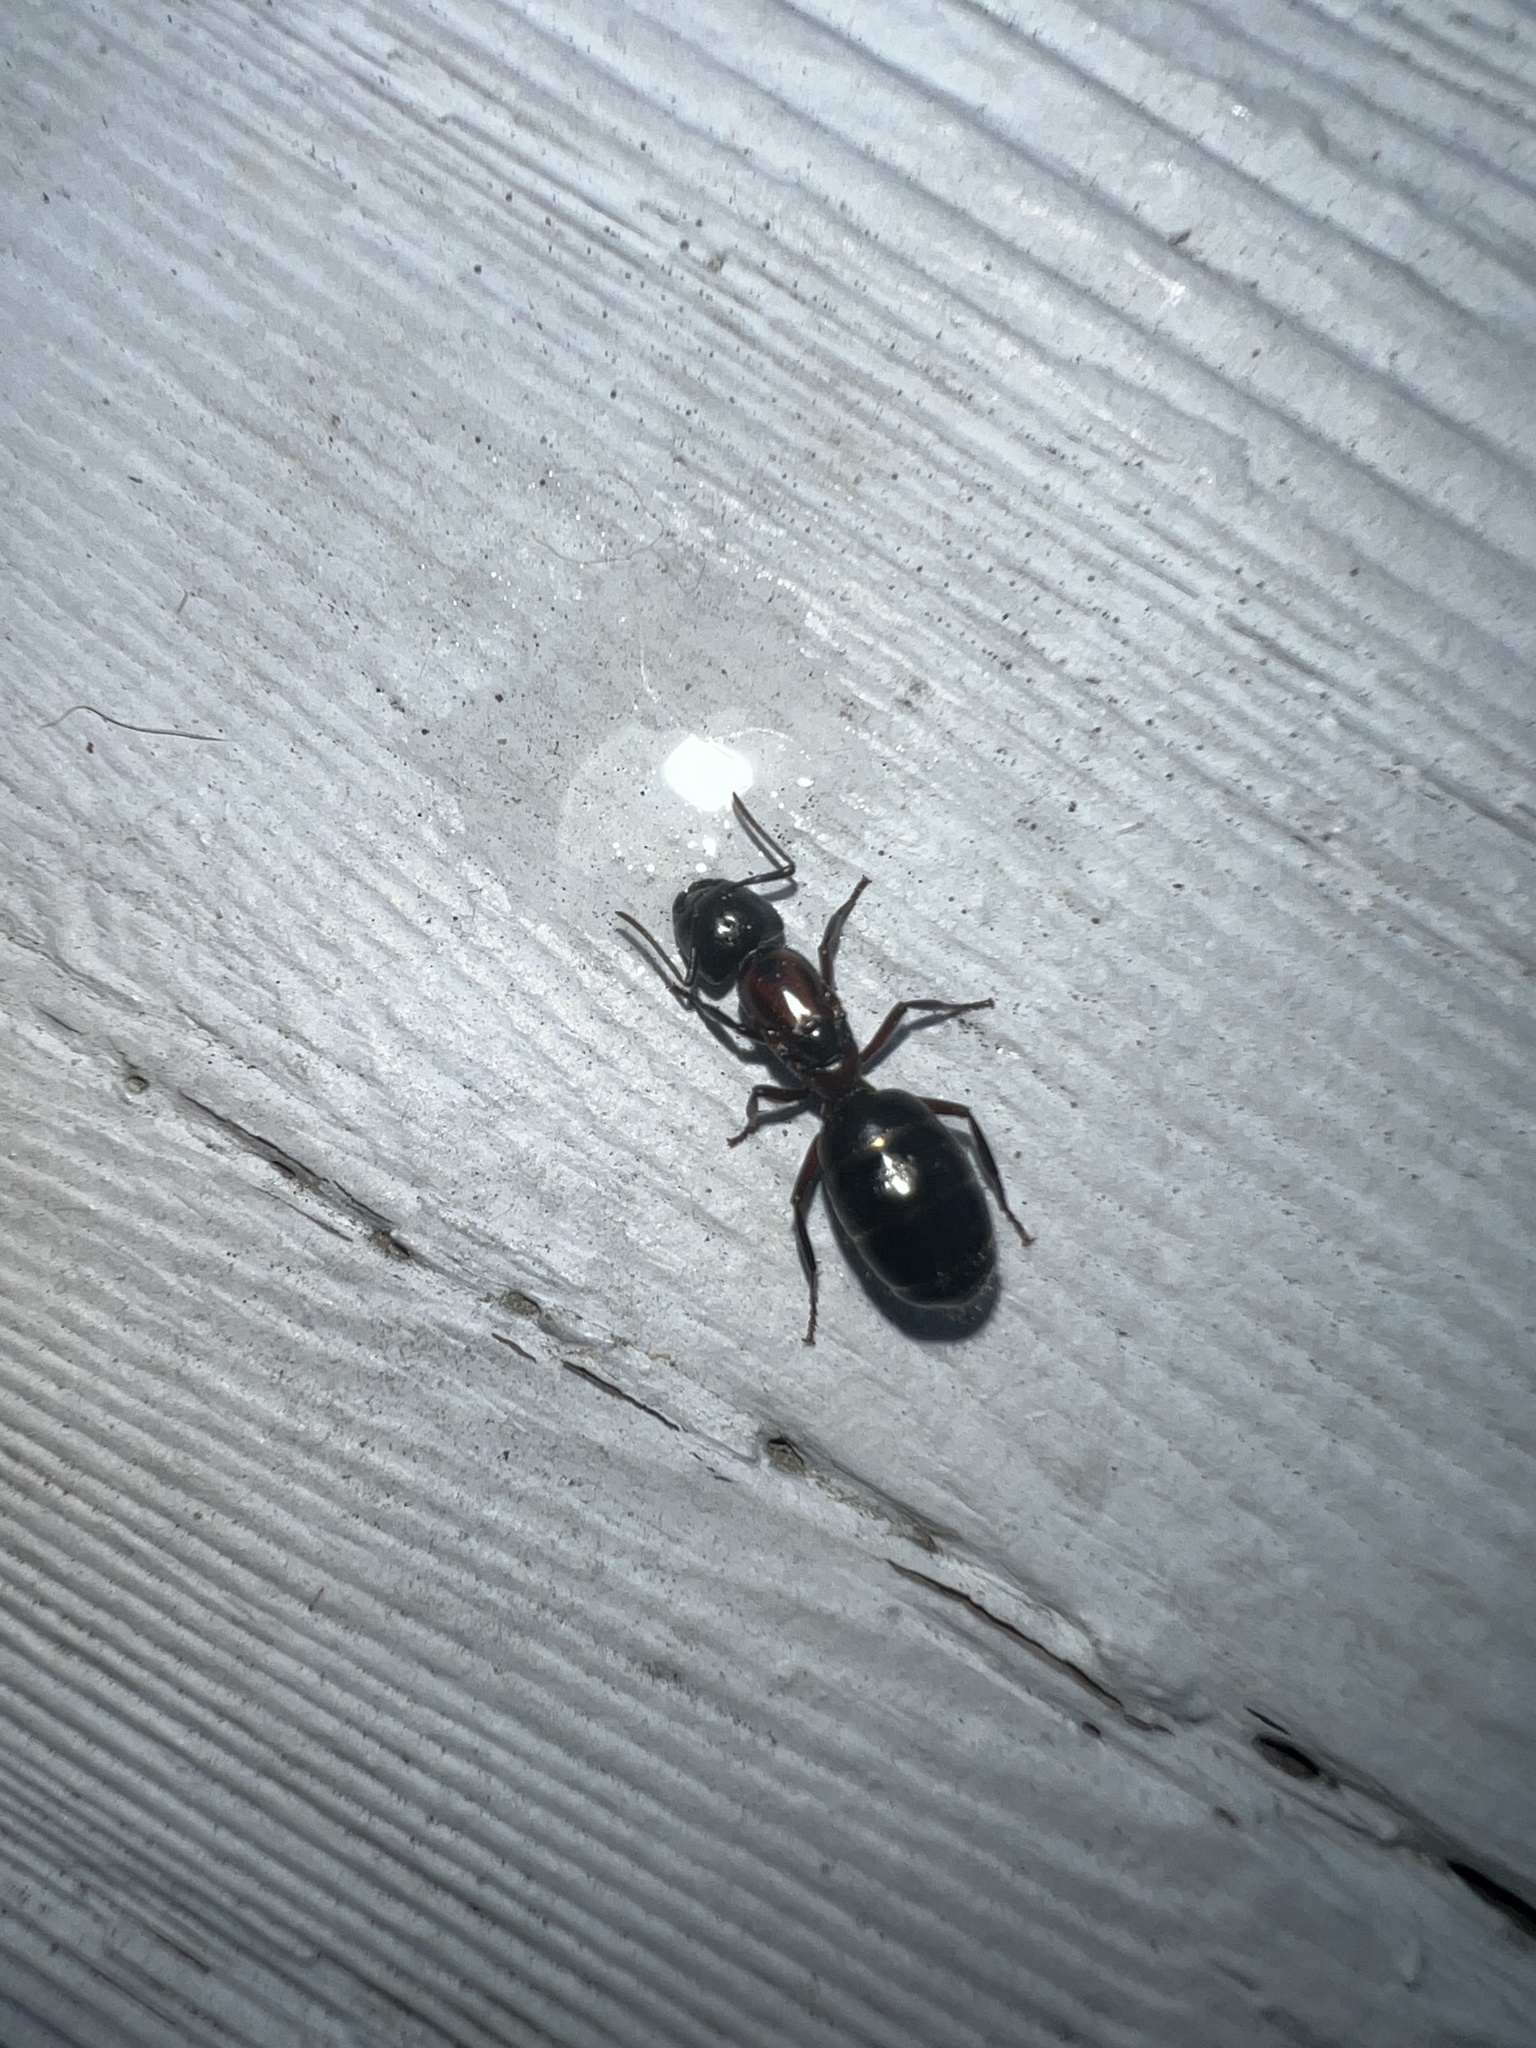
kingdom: Animalia
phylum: Arthropoda
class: Insecta
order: Hymenoptera
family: Formicidae
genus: Camponotus
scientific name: Camponotus novaeboracensis
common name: New york carpenter ant
